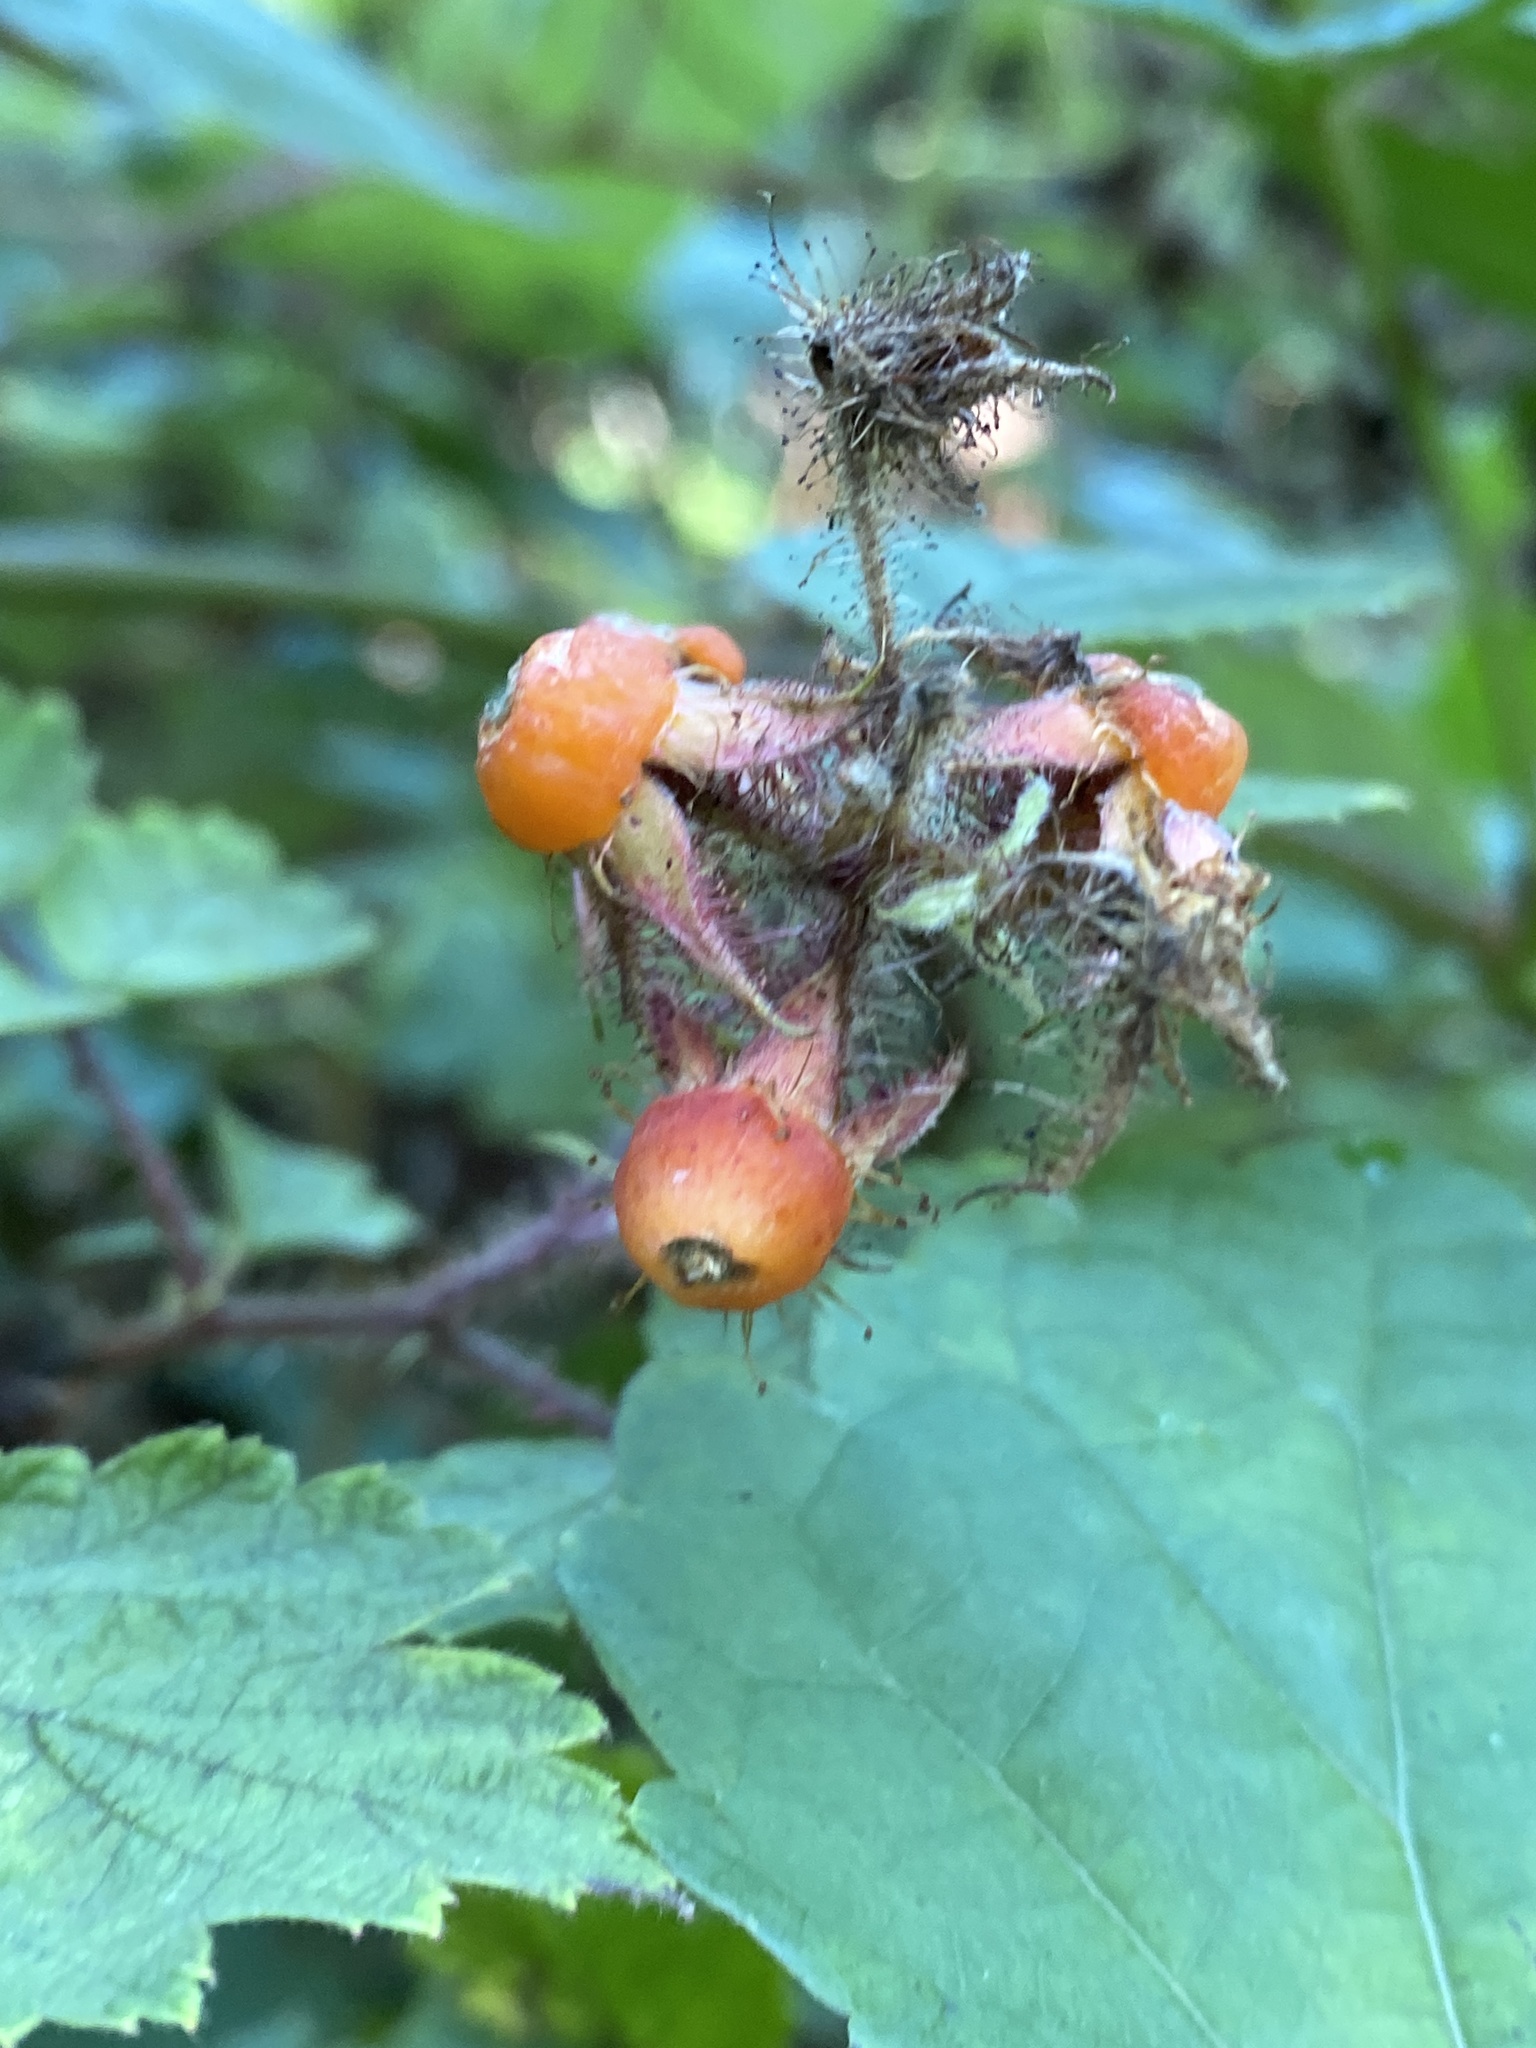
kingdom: Plantae
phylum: Tracheophyta
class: Magnoliopsida
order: Rosales
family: Rosaceae
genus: Rubus
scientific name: Rubus phoenicolasius
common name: Japanese wineberry
